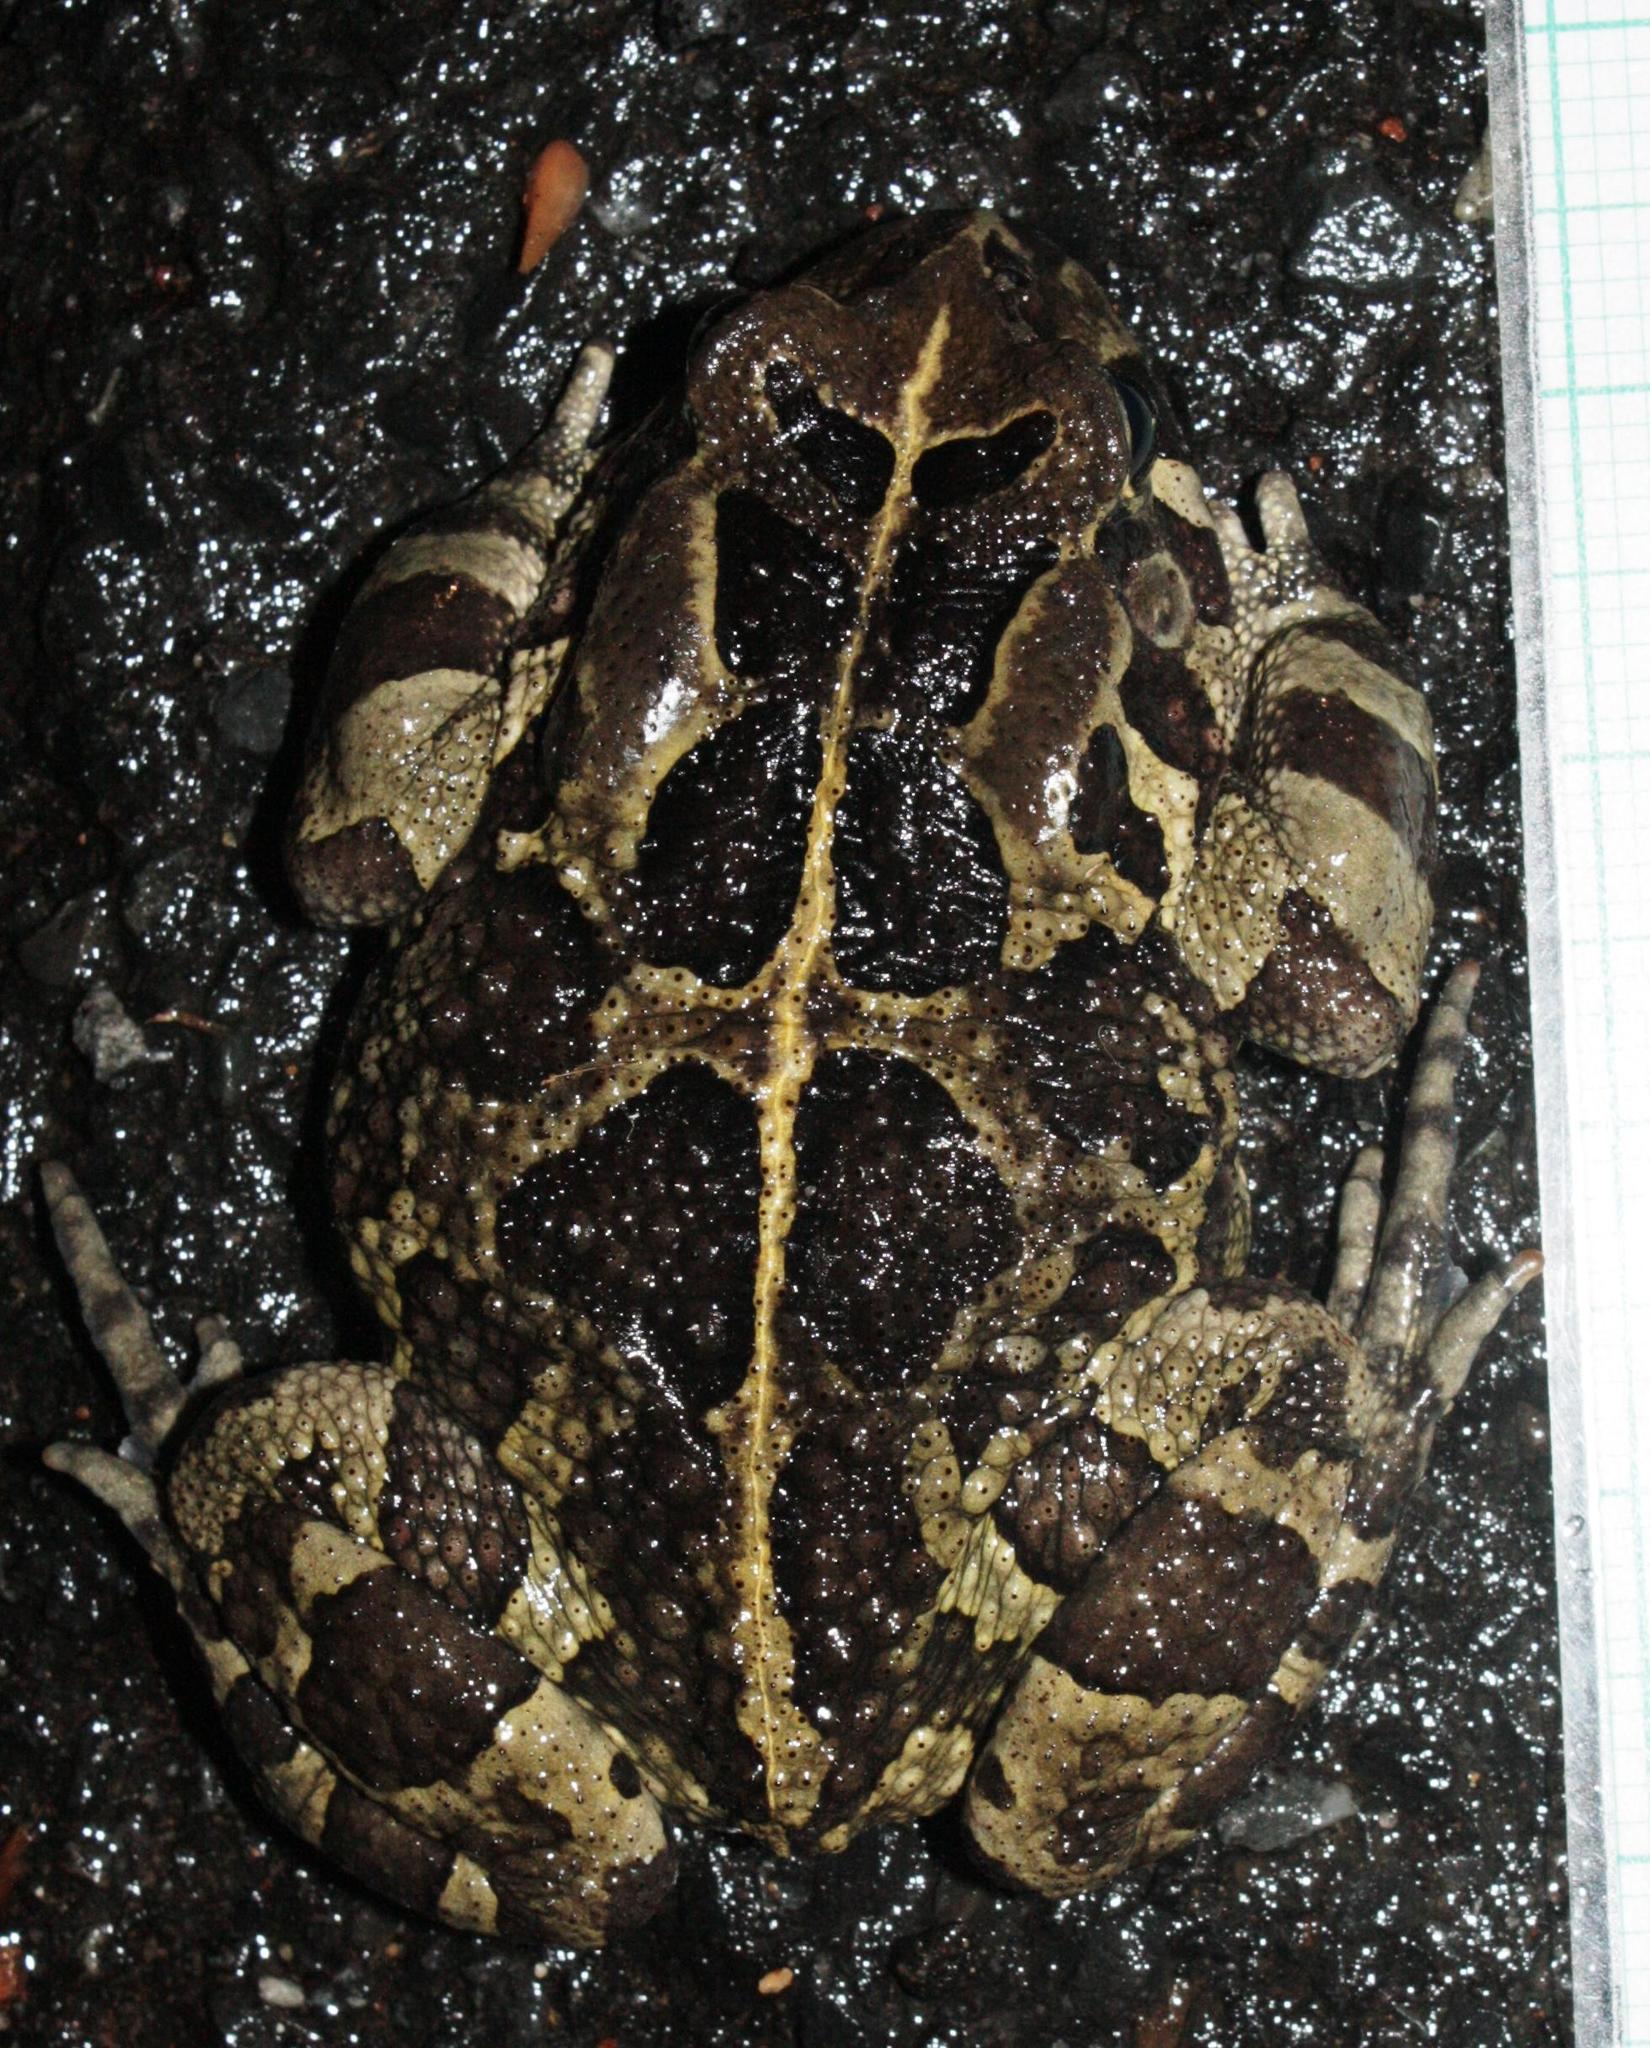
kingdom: Animalia
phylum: Chordata
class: Amphibia
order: Anura
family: Bufonidae
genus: Sclerophrys
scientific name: Sclerophrys pantherina
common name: Panther toad
